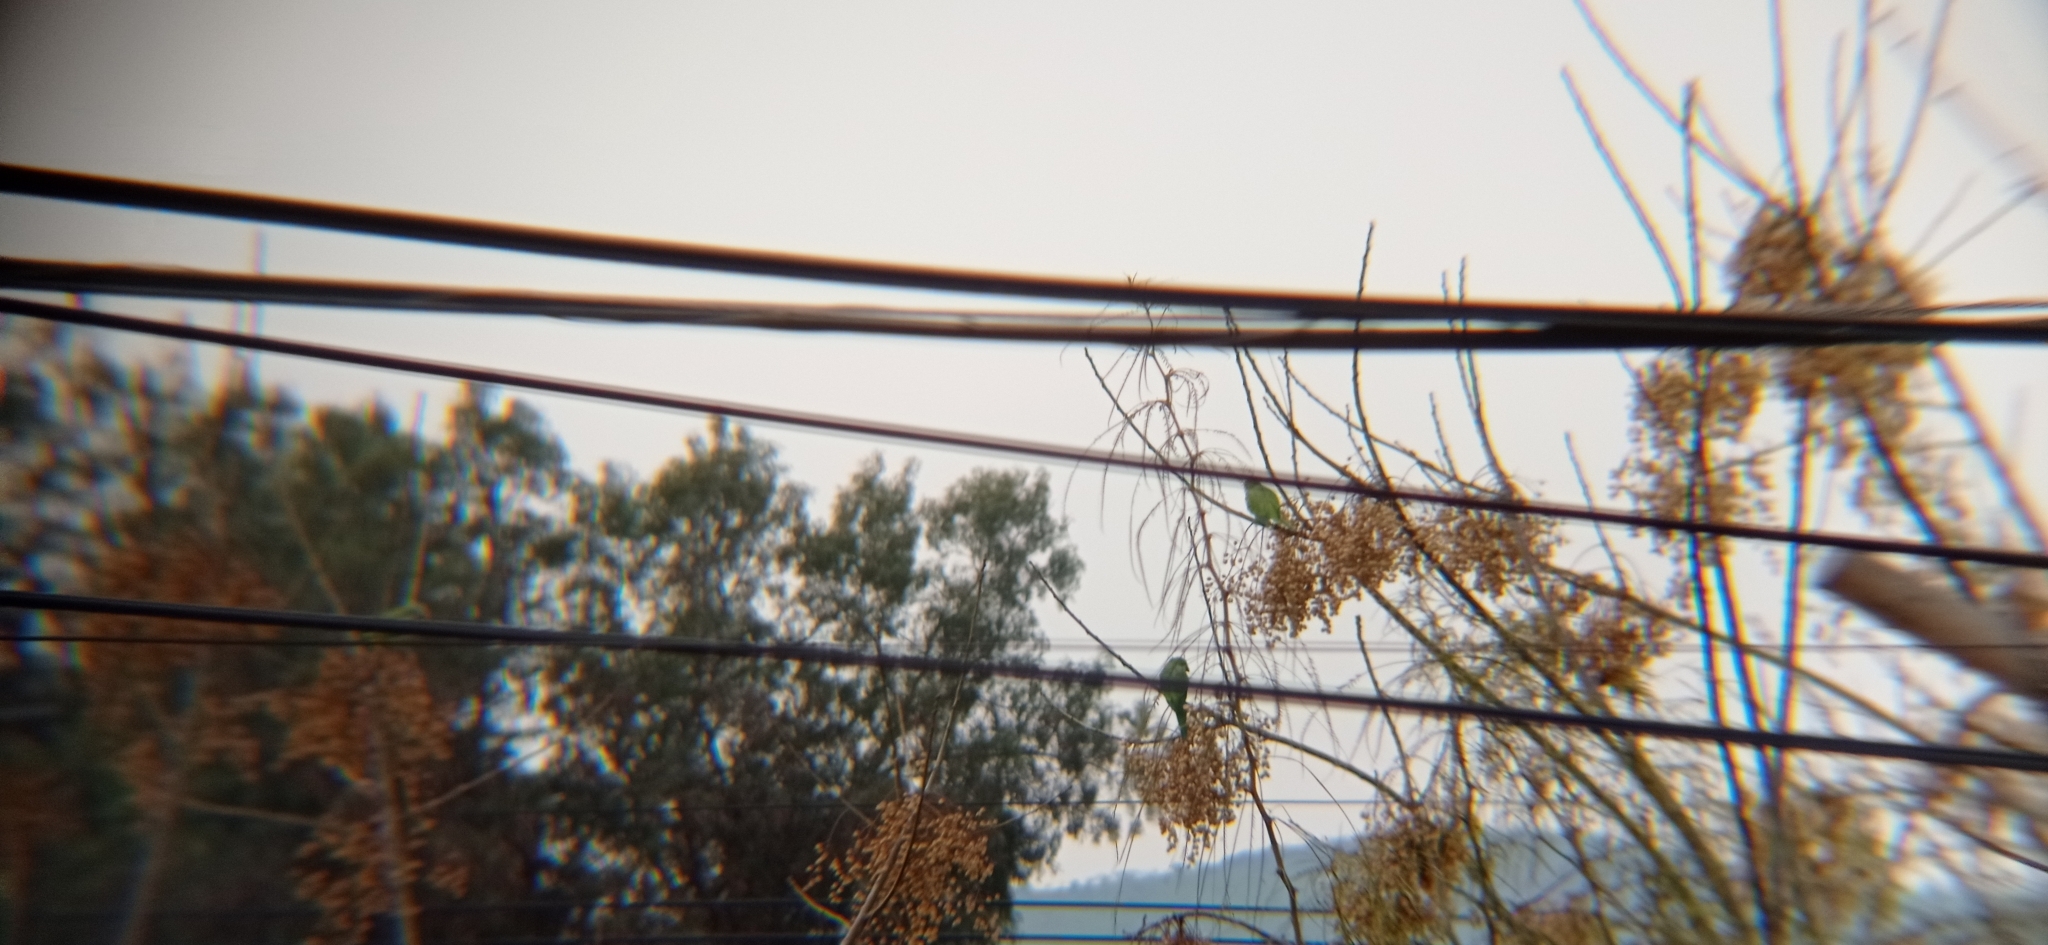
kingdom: Animalia
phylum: Chordata
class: Aves
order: Psittaciformes
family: Psittacidae
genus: Myiopsitta
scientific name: Myiopsitta monachus
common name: Monk parakeet
